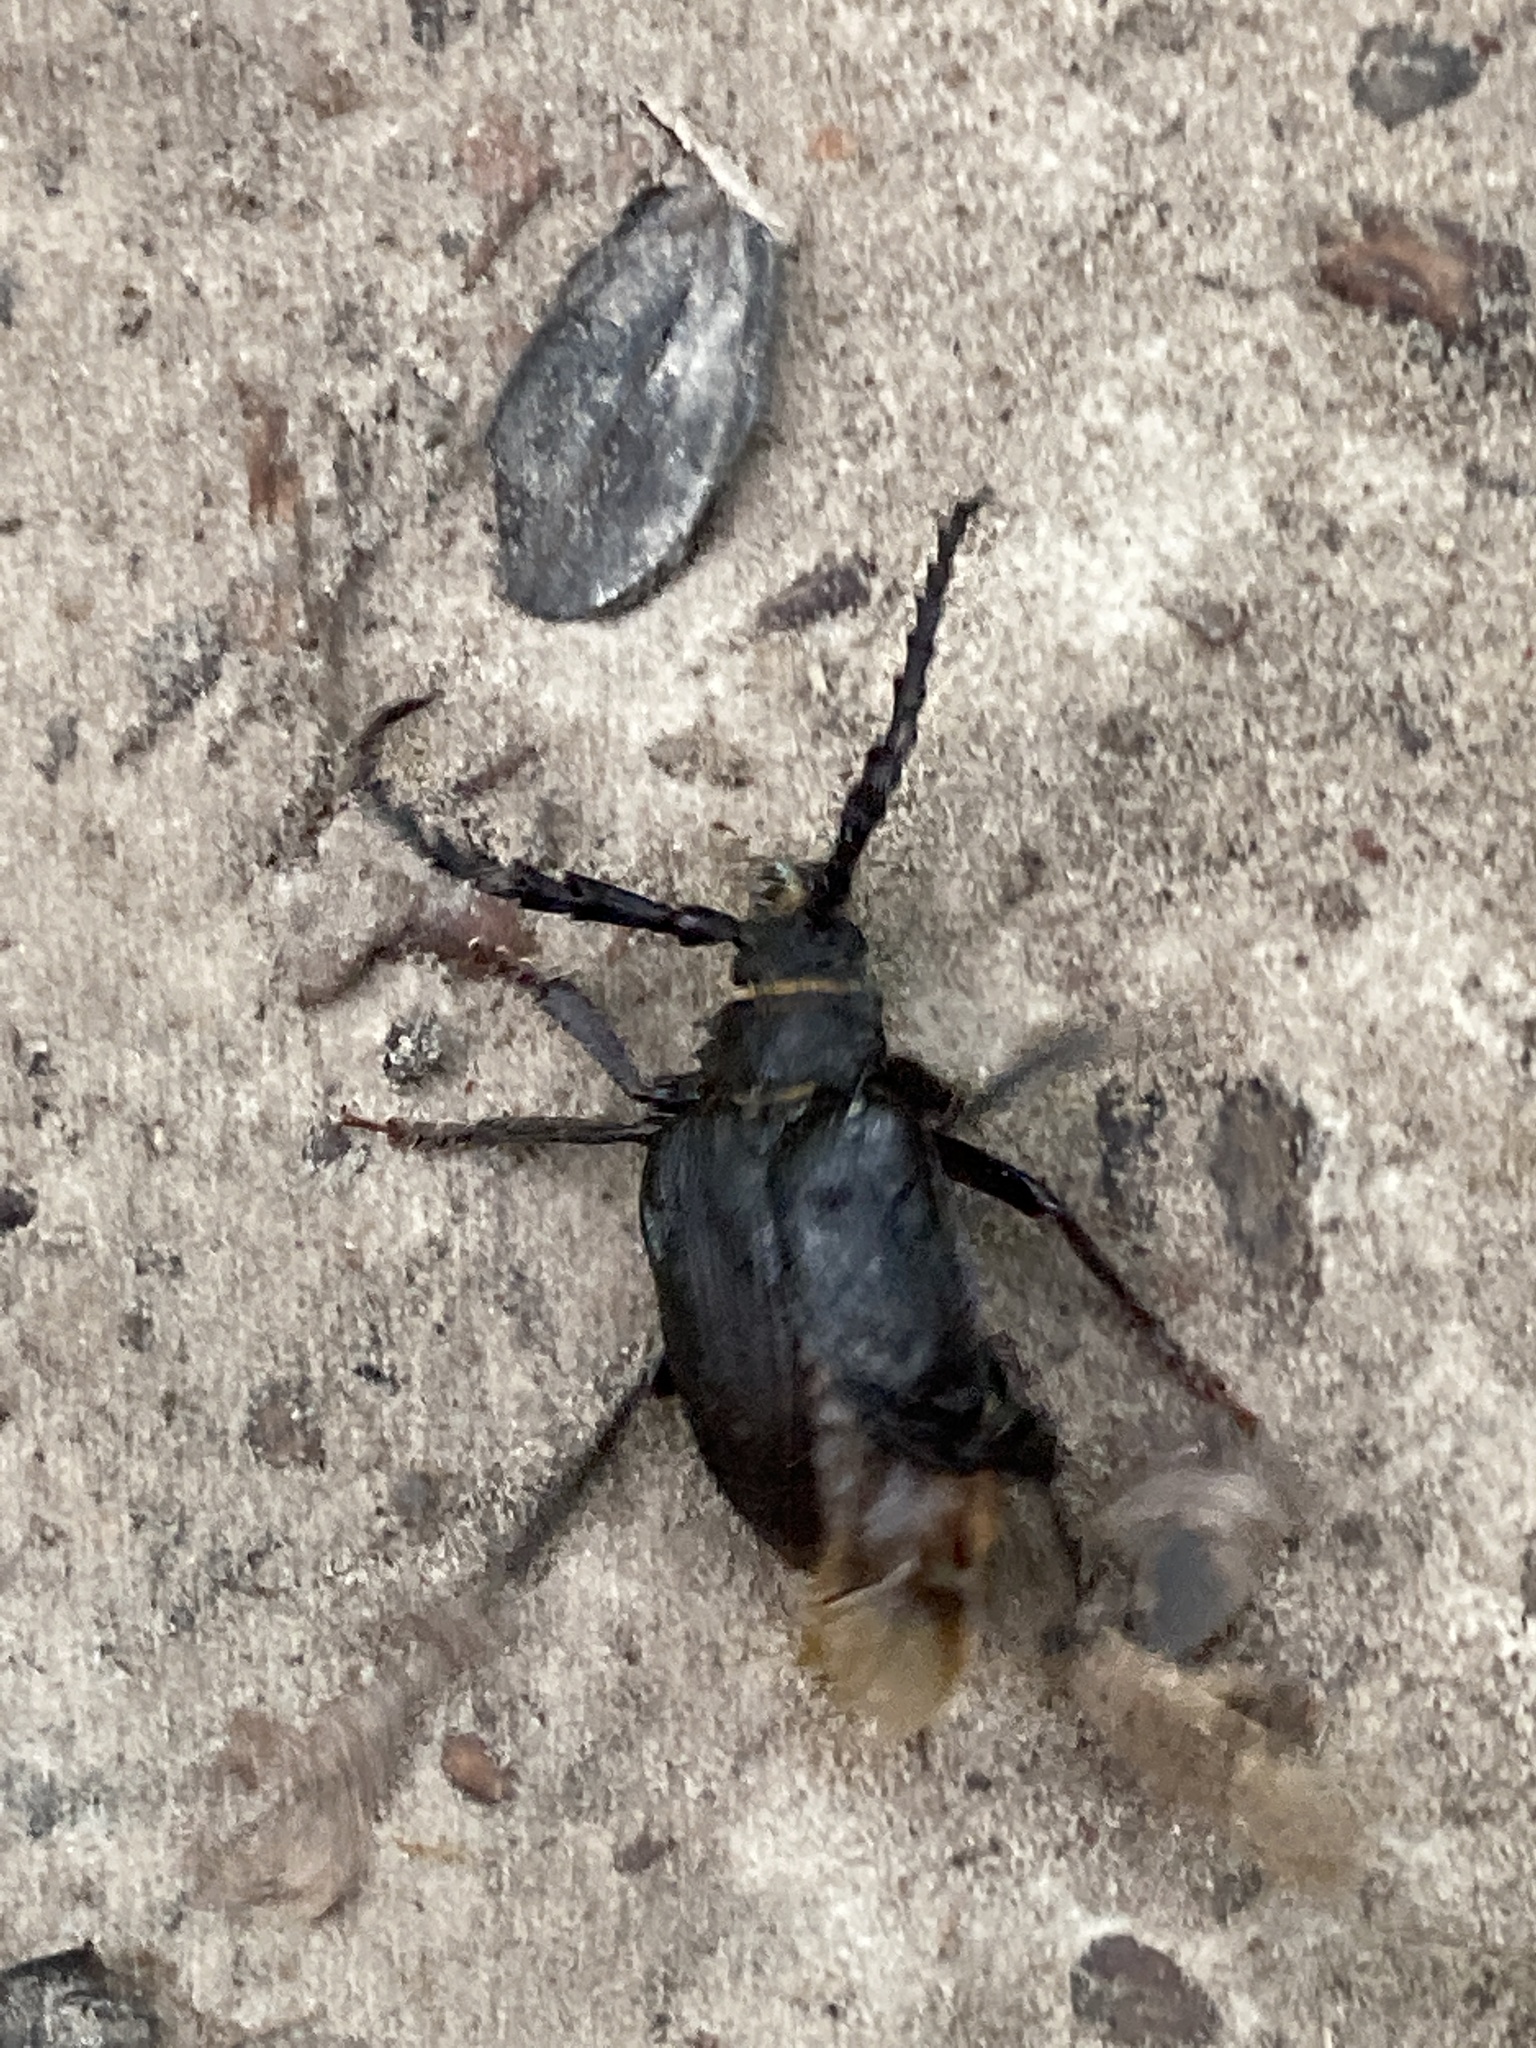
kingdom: Animalia
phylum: Arthropoda
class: Insecta
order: Coleoptera
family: Cerambycidae
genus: Prionus
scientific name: Prionus coriarius
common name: Tanner beetle
